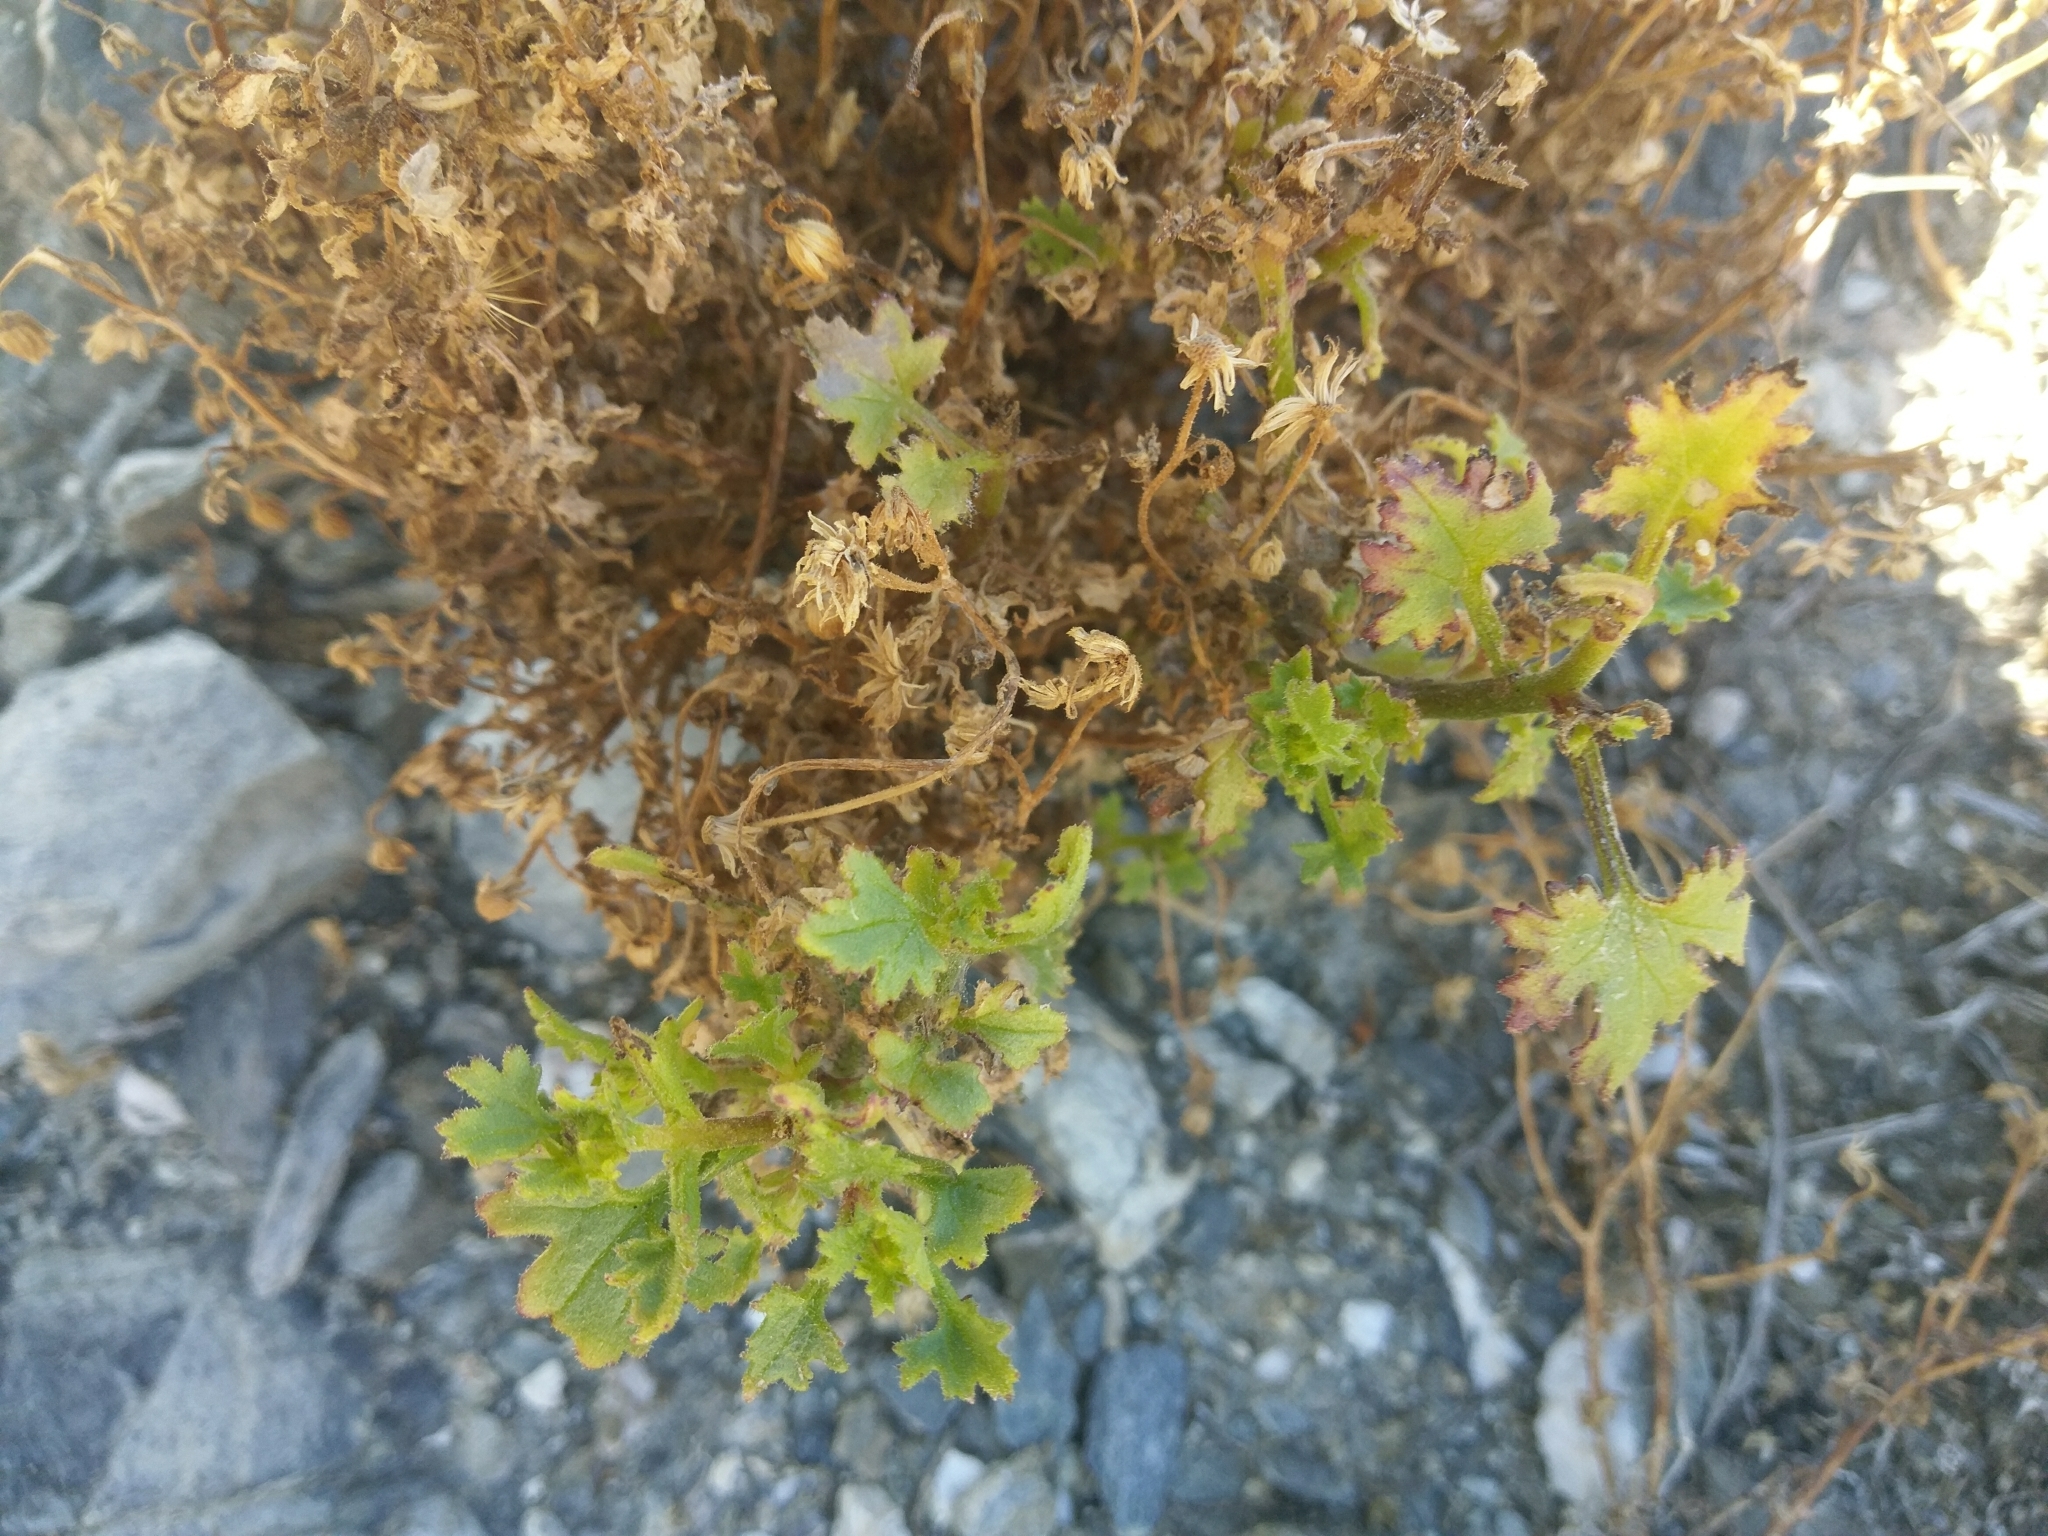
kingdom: Plantae
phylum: Tracheophyta
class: Magnoliopsida
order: Asterales
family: Asteraceae
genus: Laphamia
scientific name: Laphamia emoryi
